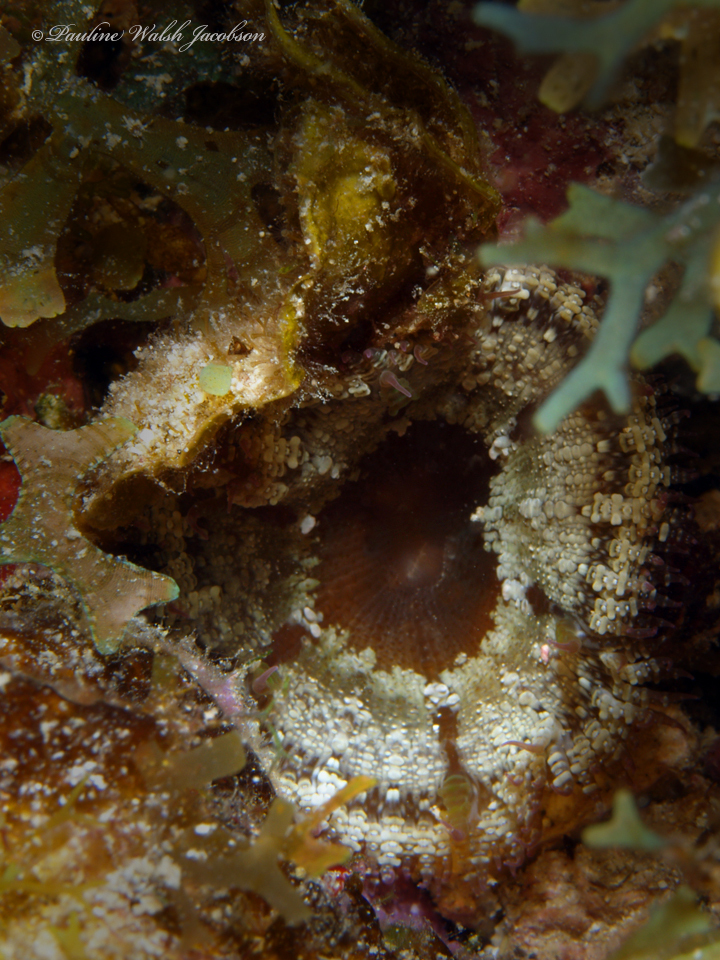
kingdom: Animalia
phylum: Cnidaria
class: Anthozoa
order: Actiniaria
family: Phymanthidae
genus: Phymanthus
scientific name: Phymanthus crucifer
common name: Red beaded anemone
